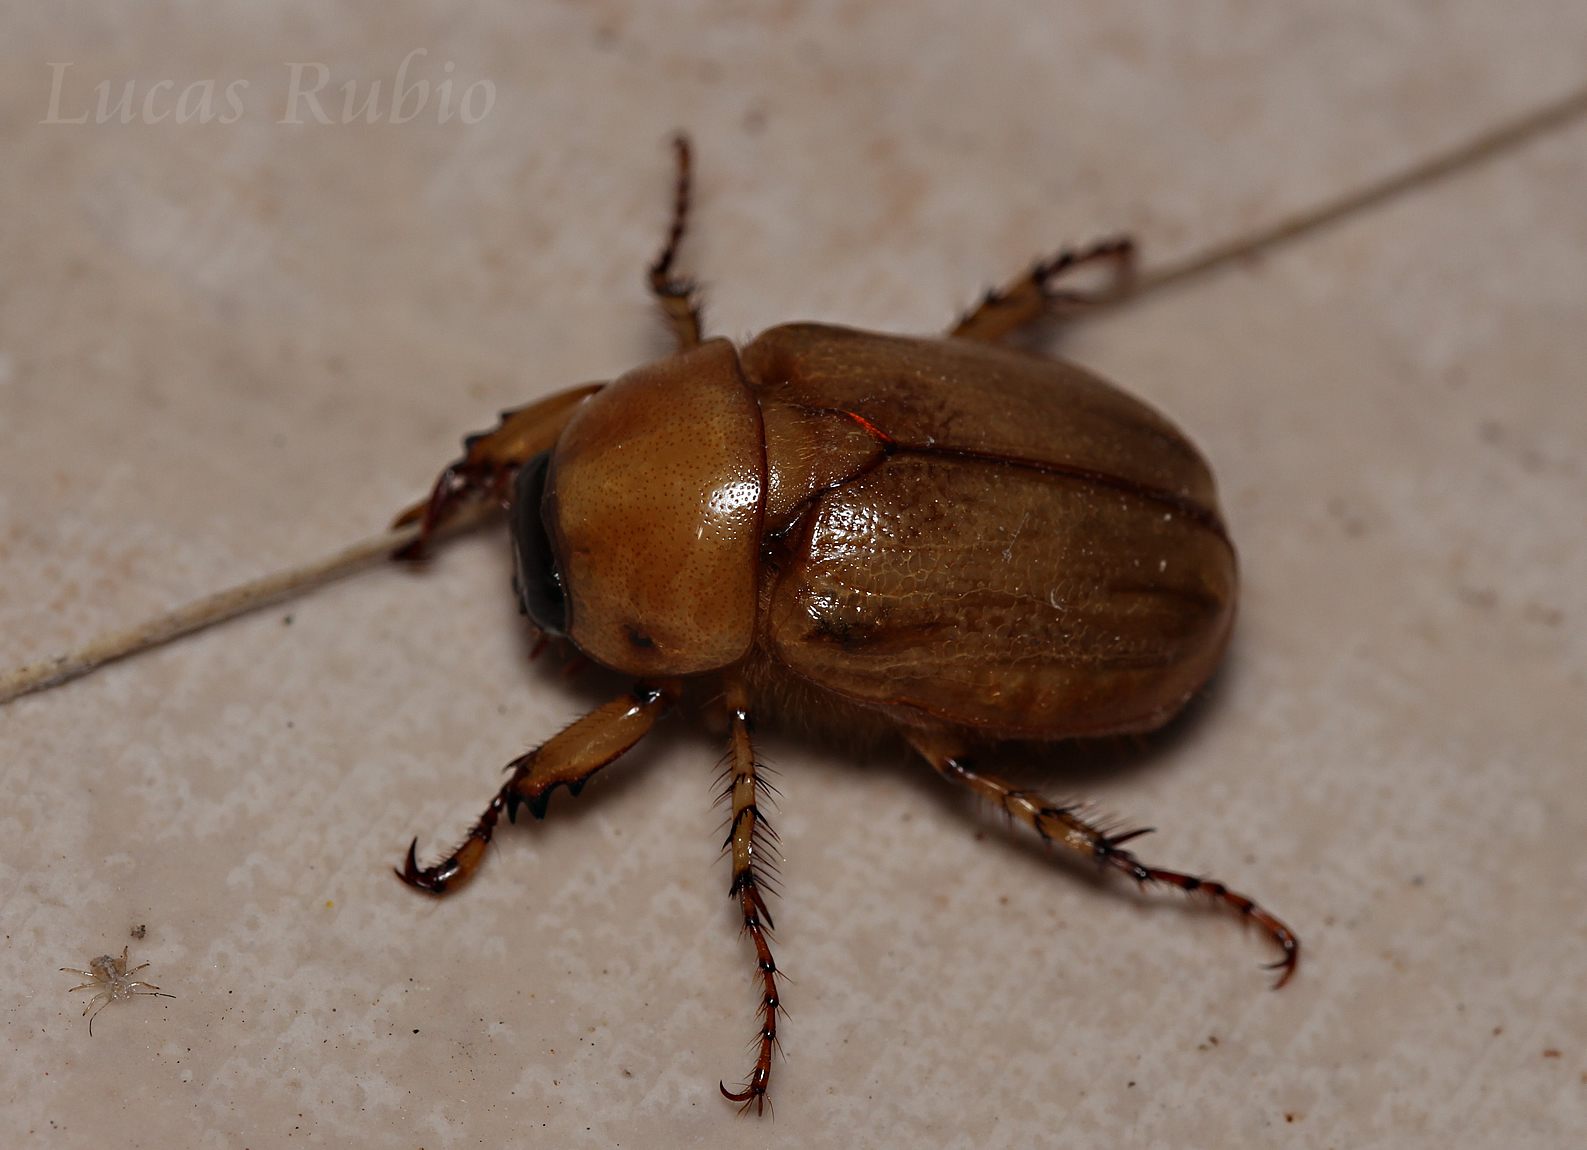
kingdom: Animalia
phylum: Arthropoda
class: Insecta
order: Coleoptera
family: Scarabaeidae
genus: Cyclocephala
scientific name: Cyclocephala putrida
